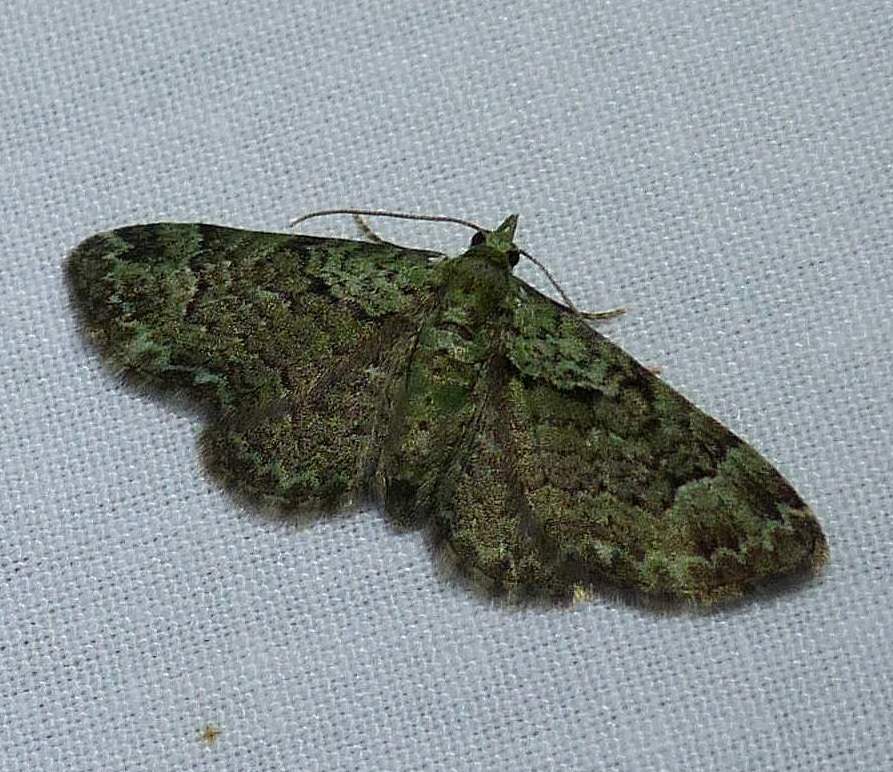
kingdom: Animalia
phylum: Arthropoda
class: Insecta
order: Lepidoptera
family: Geometridae
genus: Pasiphila
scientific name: Pasiphila rectangulata
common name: Green pug
